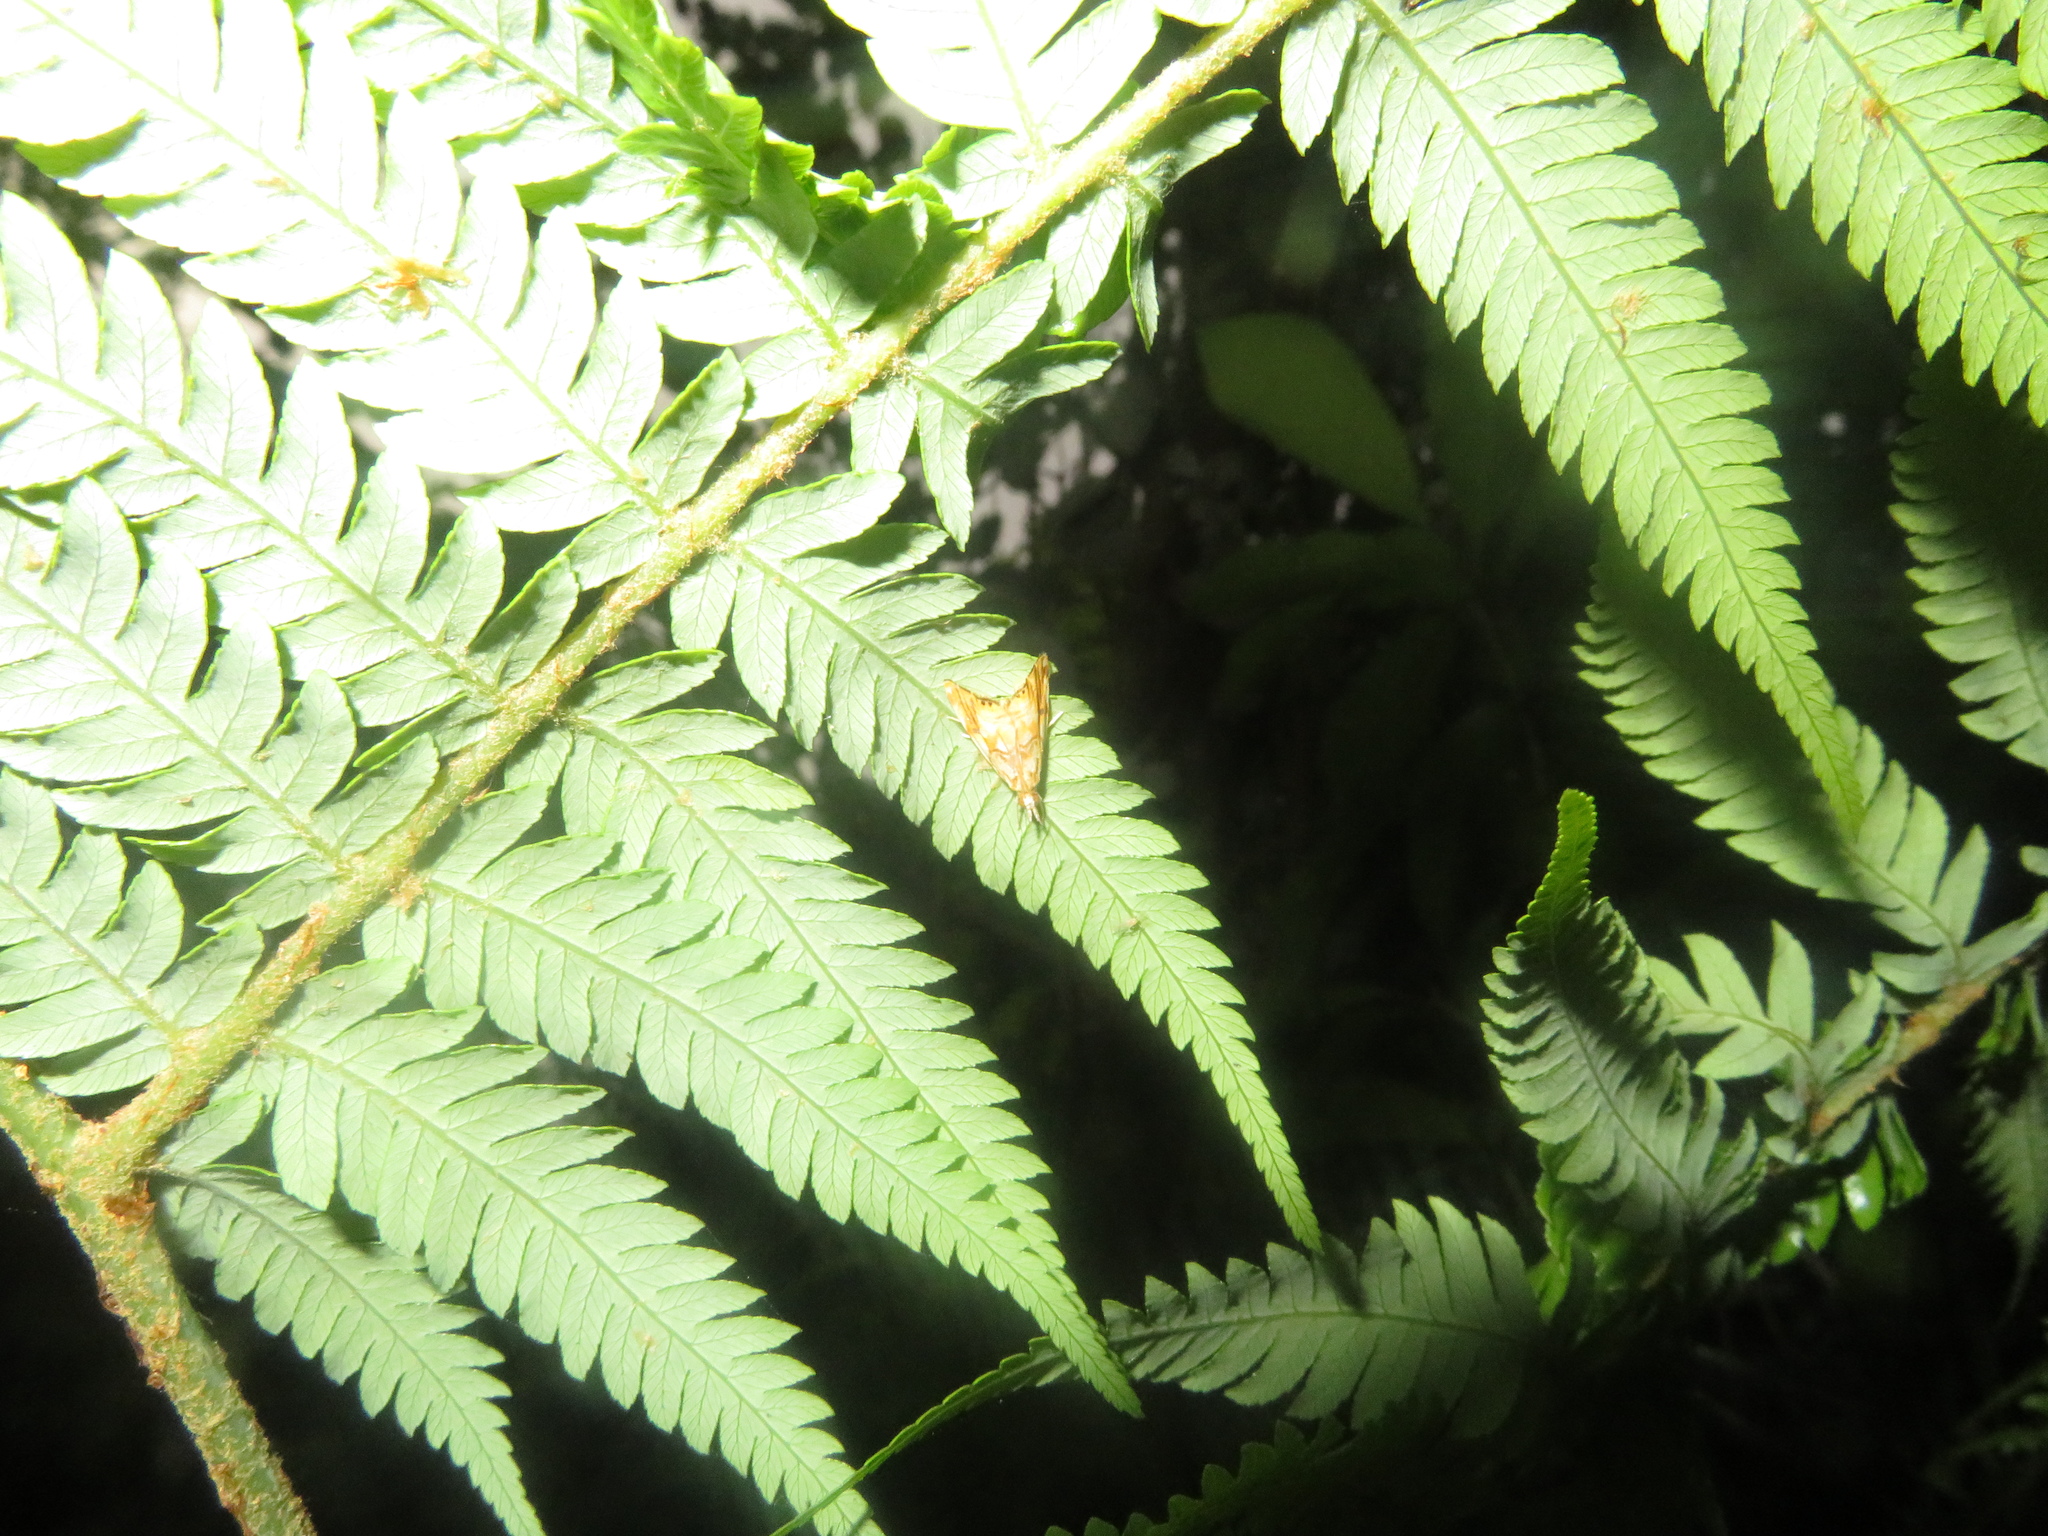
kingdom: Animalia
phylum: Arthropoda
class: Insecta
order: Lepidoptera
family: Crambidae
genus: Glaucocharis
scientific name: Glaucocharis selenaea
